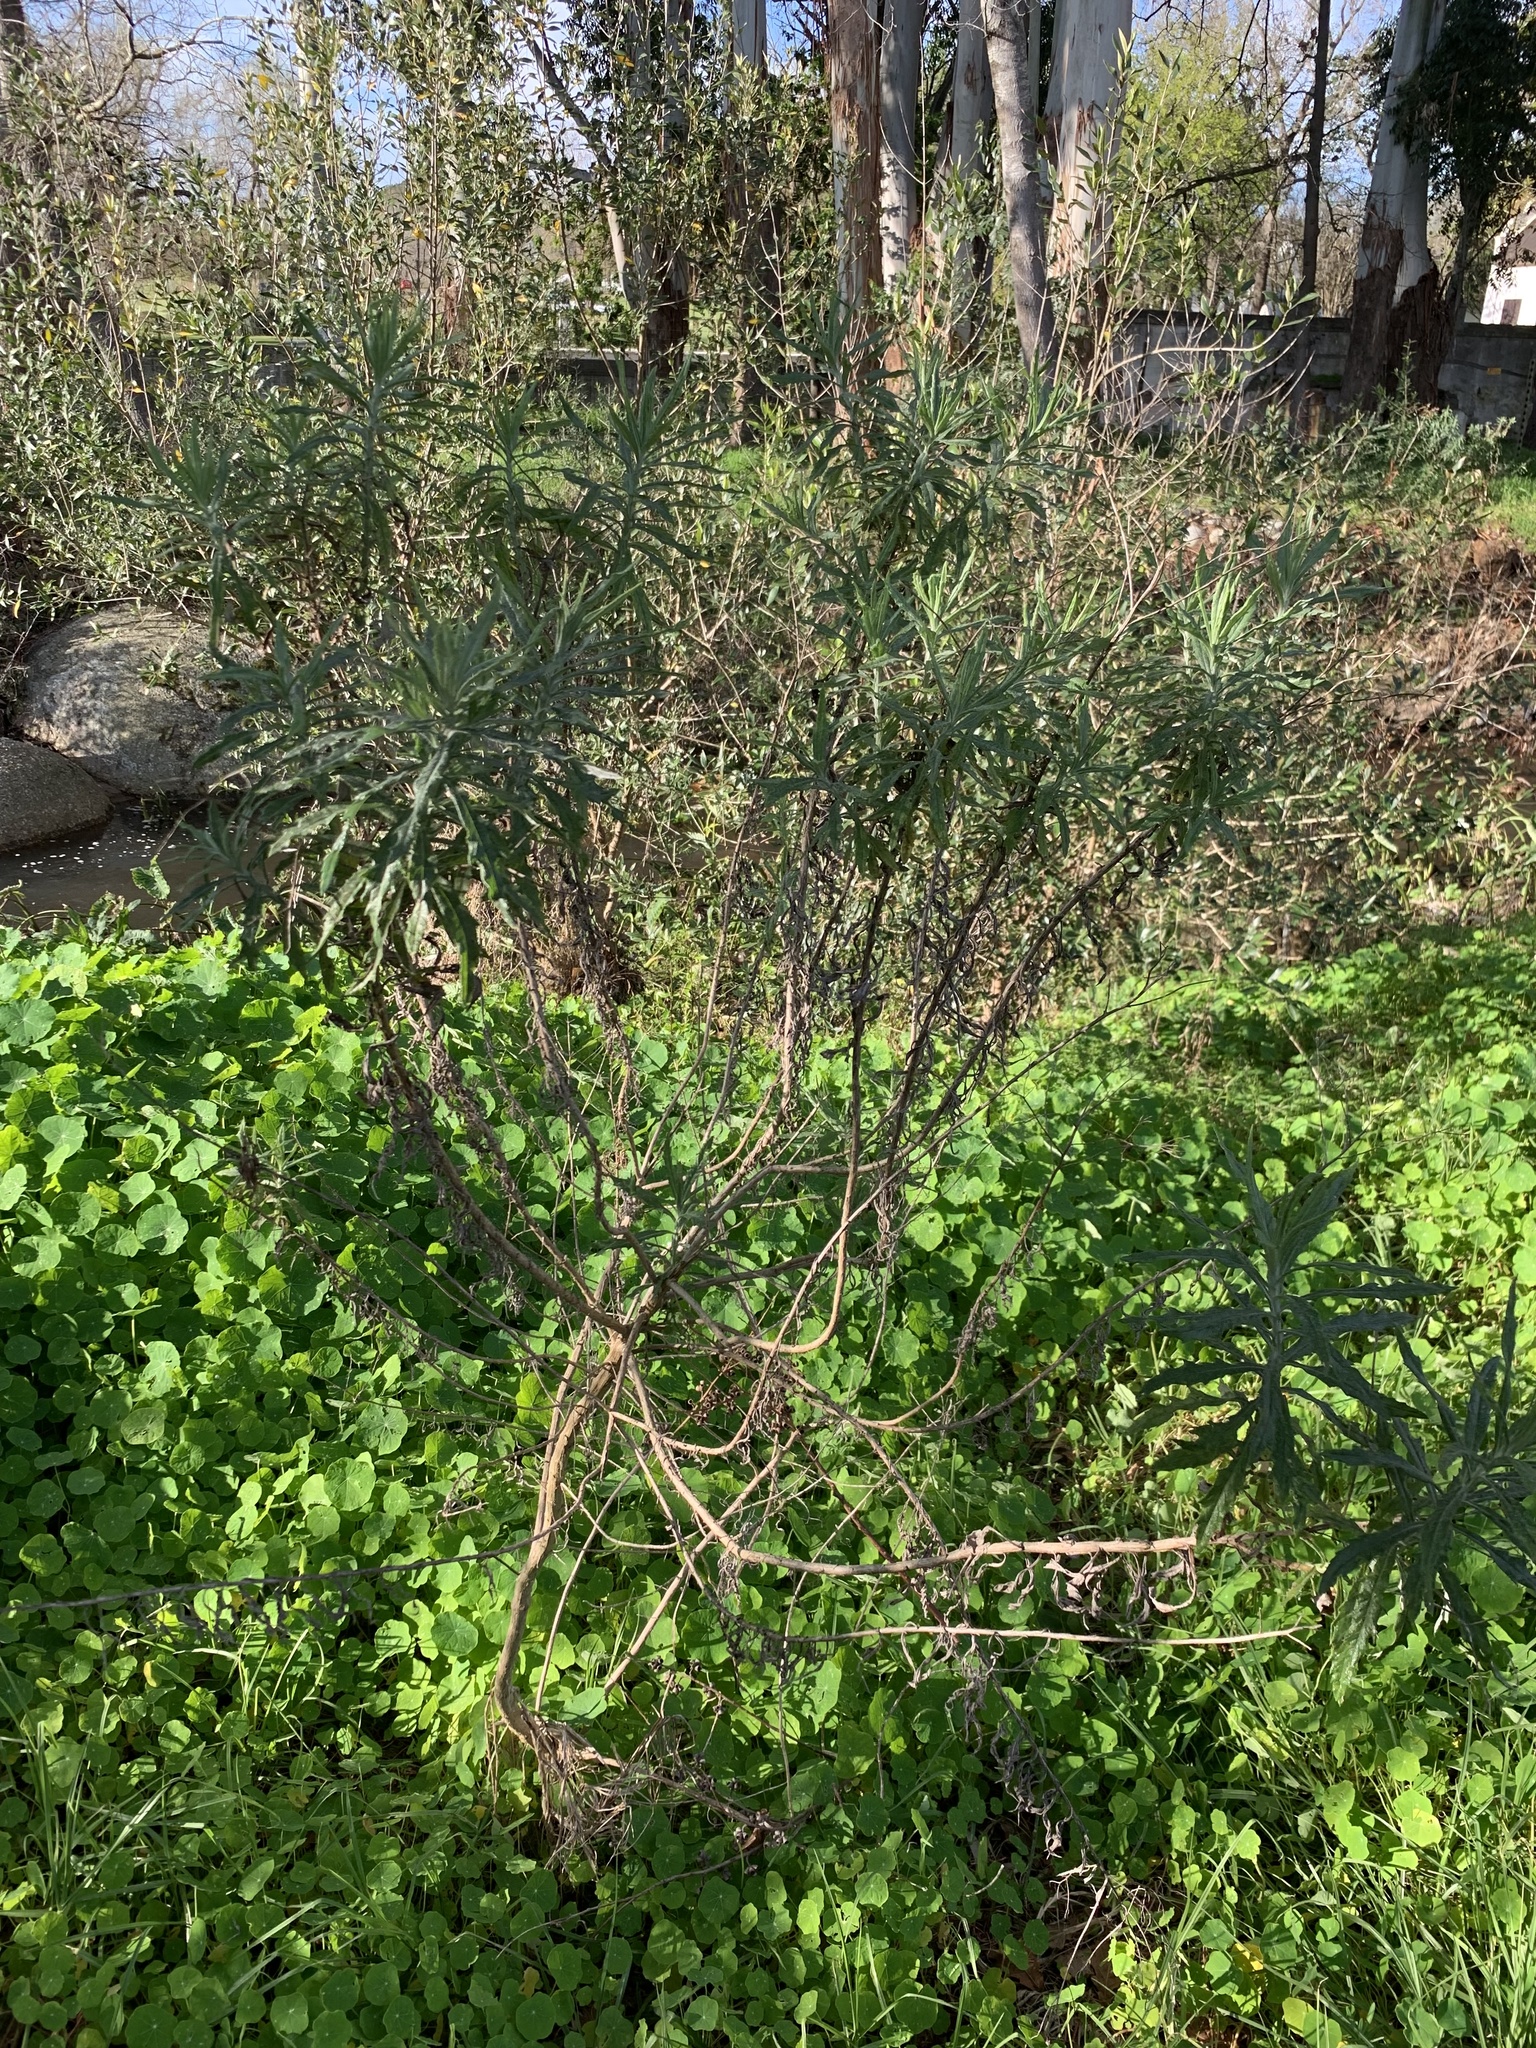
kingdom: Plantae
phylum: Tracheophyta
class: Magnoliopsida
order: Asterales
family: Asteraceae
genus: Senecio
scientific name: Senecio pterophorus
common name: Shoddy ragwort
